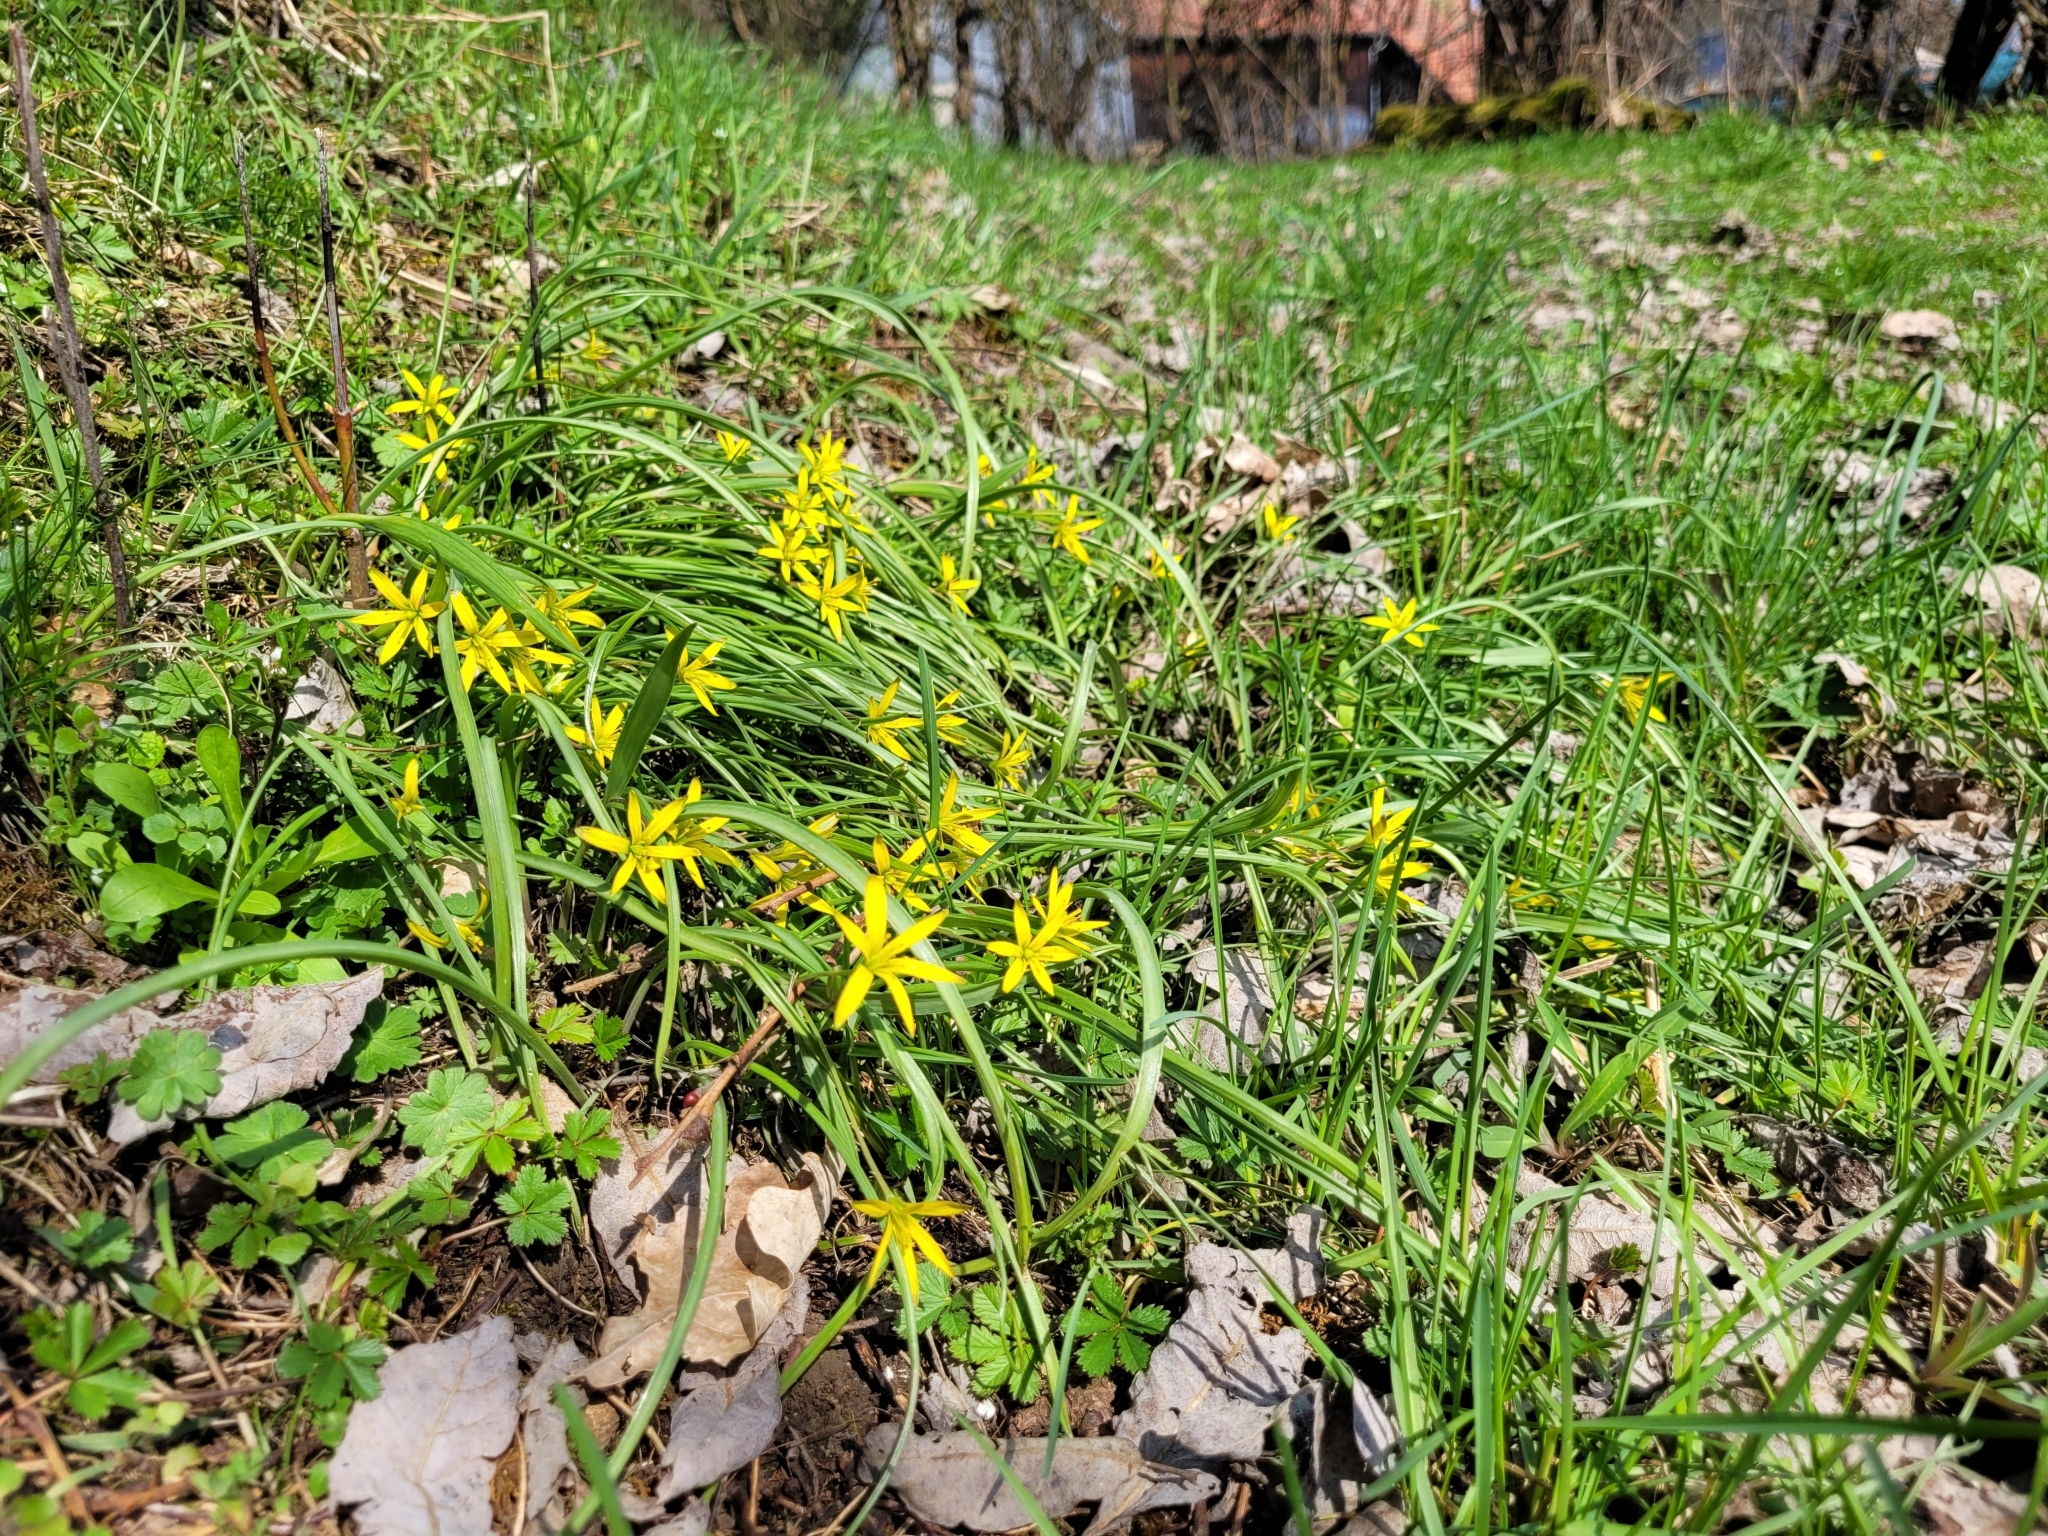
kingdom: Plantae
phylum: Tracheophyta
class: Liliopsida
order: Liliales
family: Liliaceae
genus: Gagea
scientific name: Gagea pratensis
